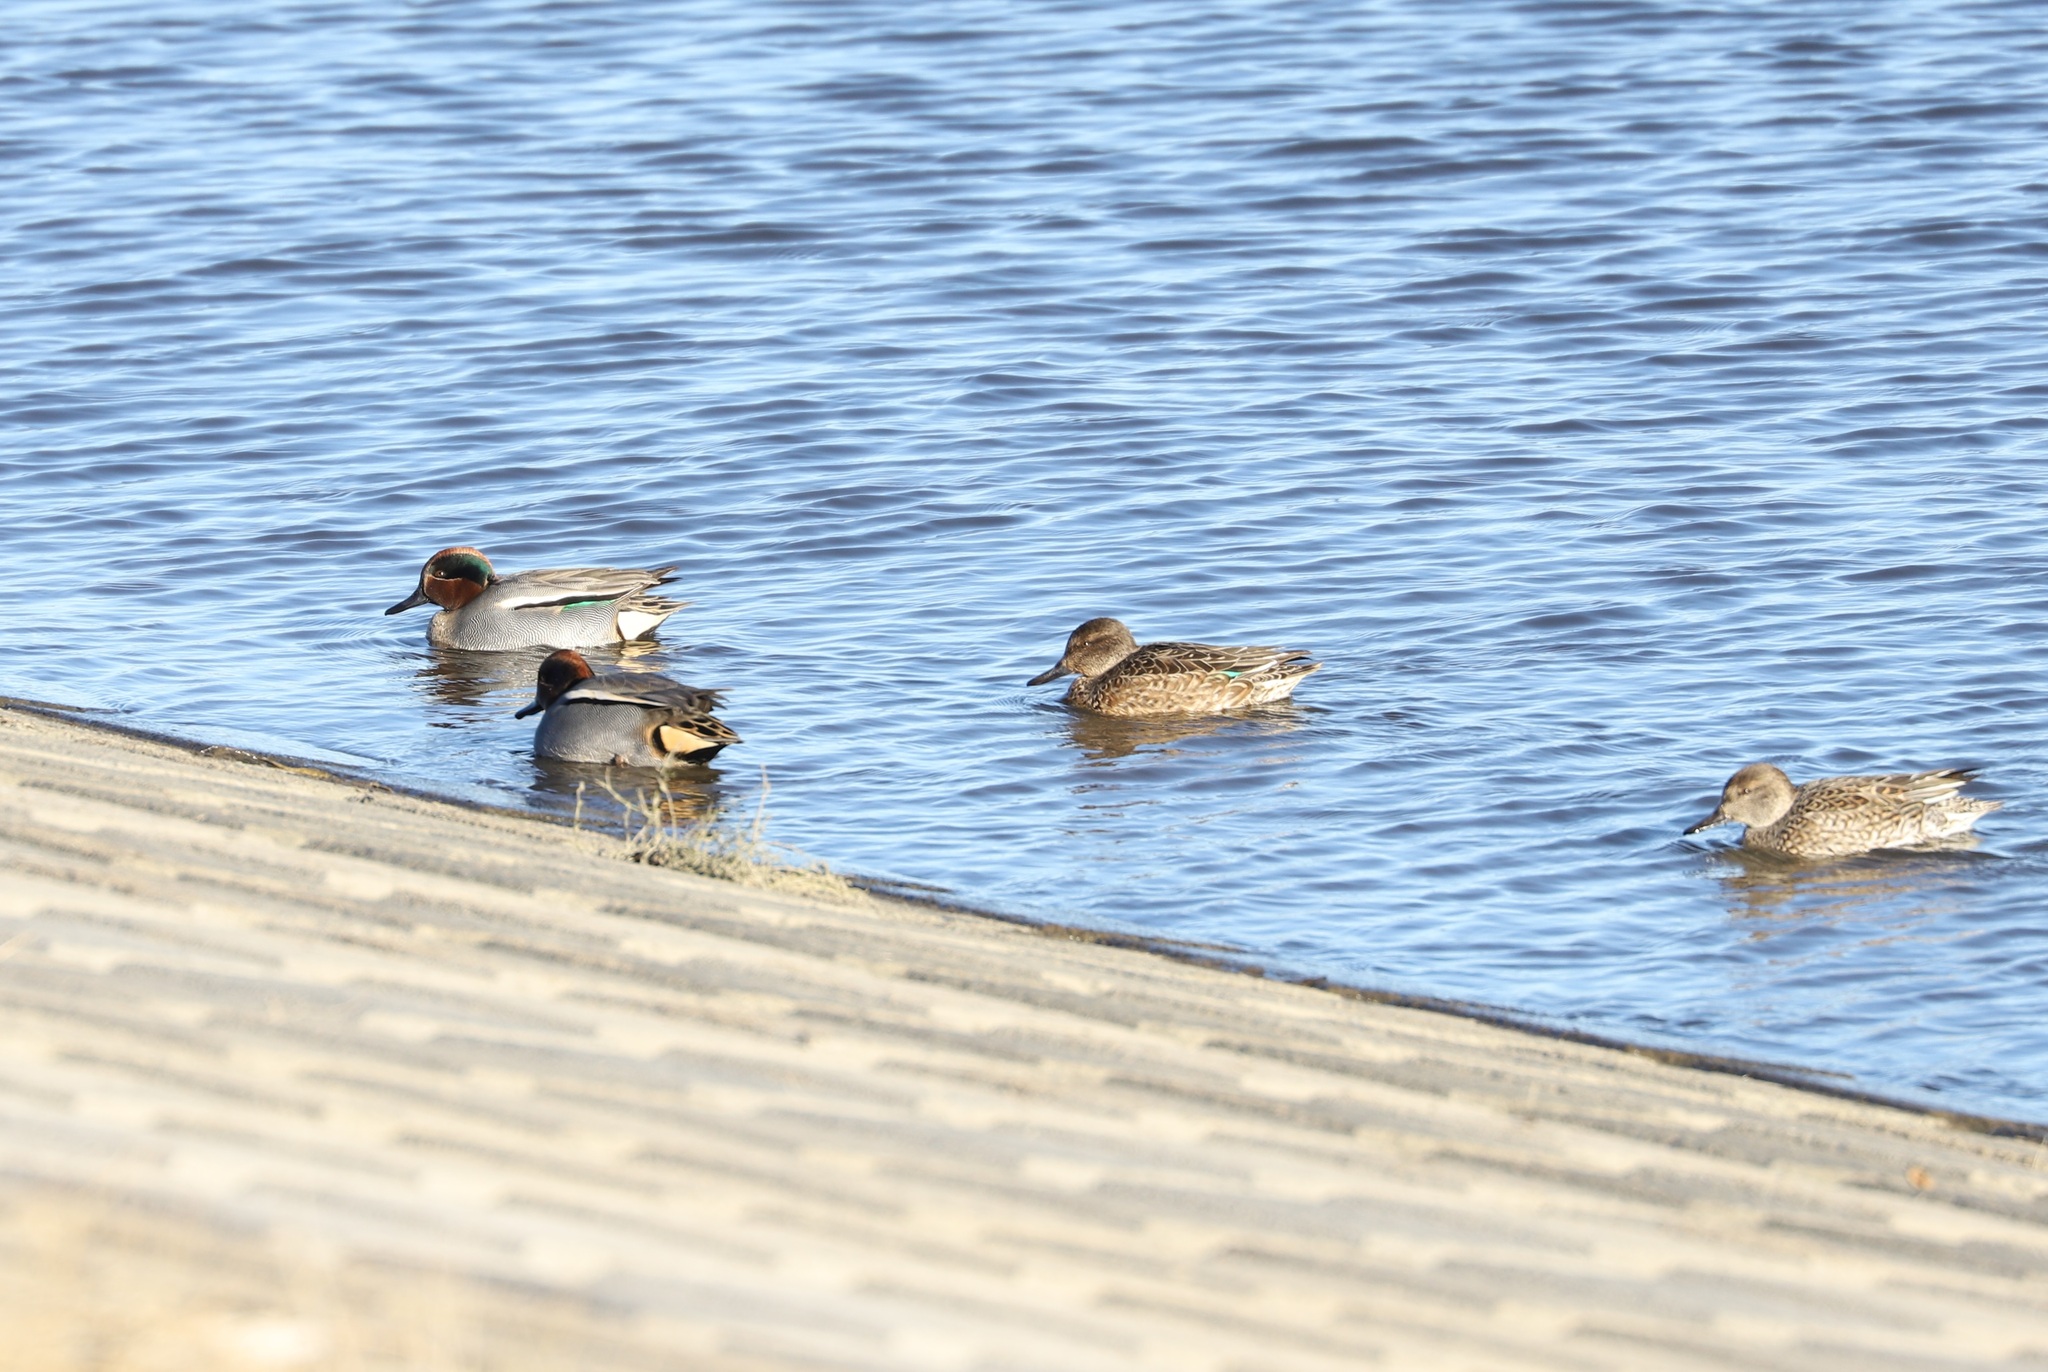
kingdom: Animalia
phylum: Chordata
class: Aves
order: Anseriformes
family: Anatidae
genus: Anas
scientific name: Anas crecca
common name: Eurasian teal
